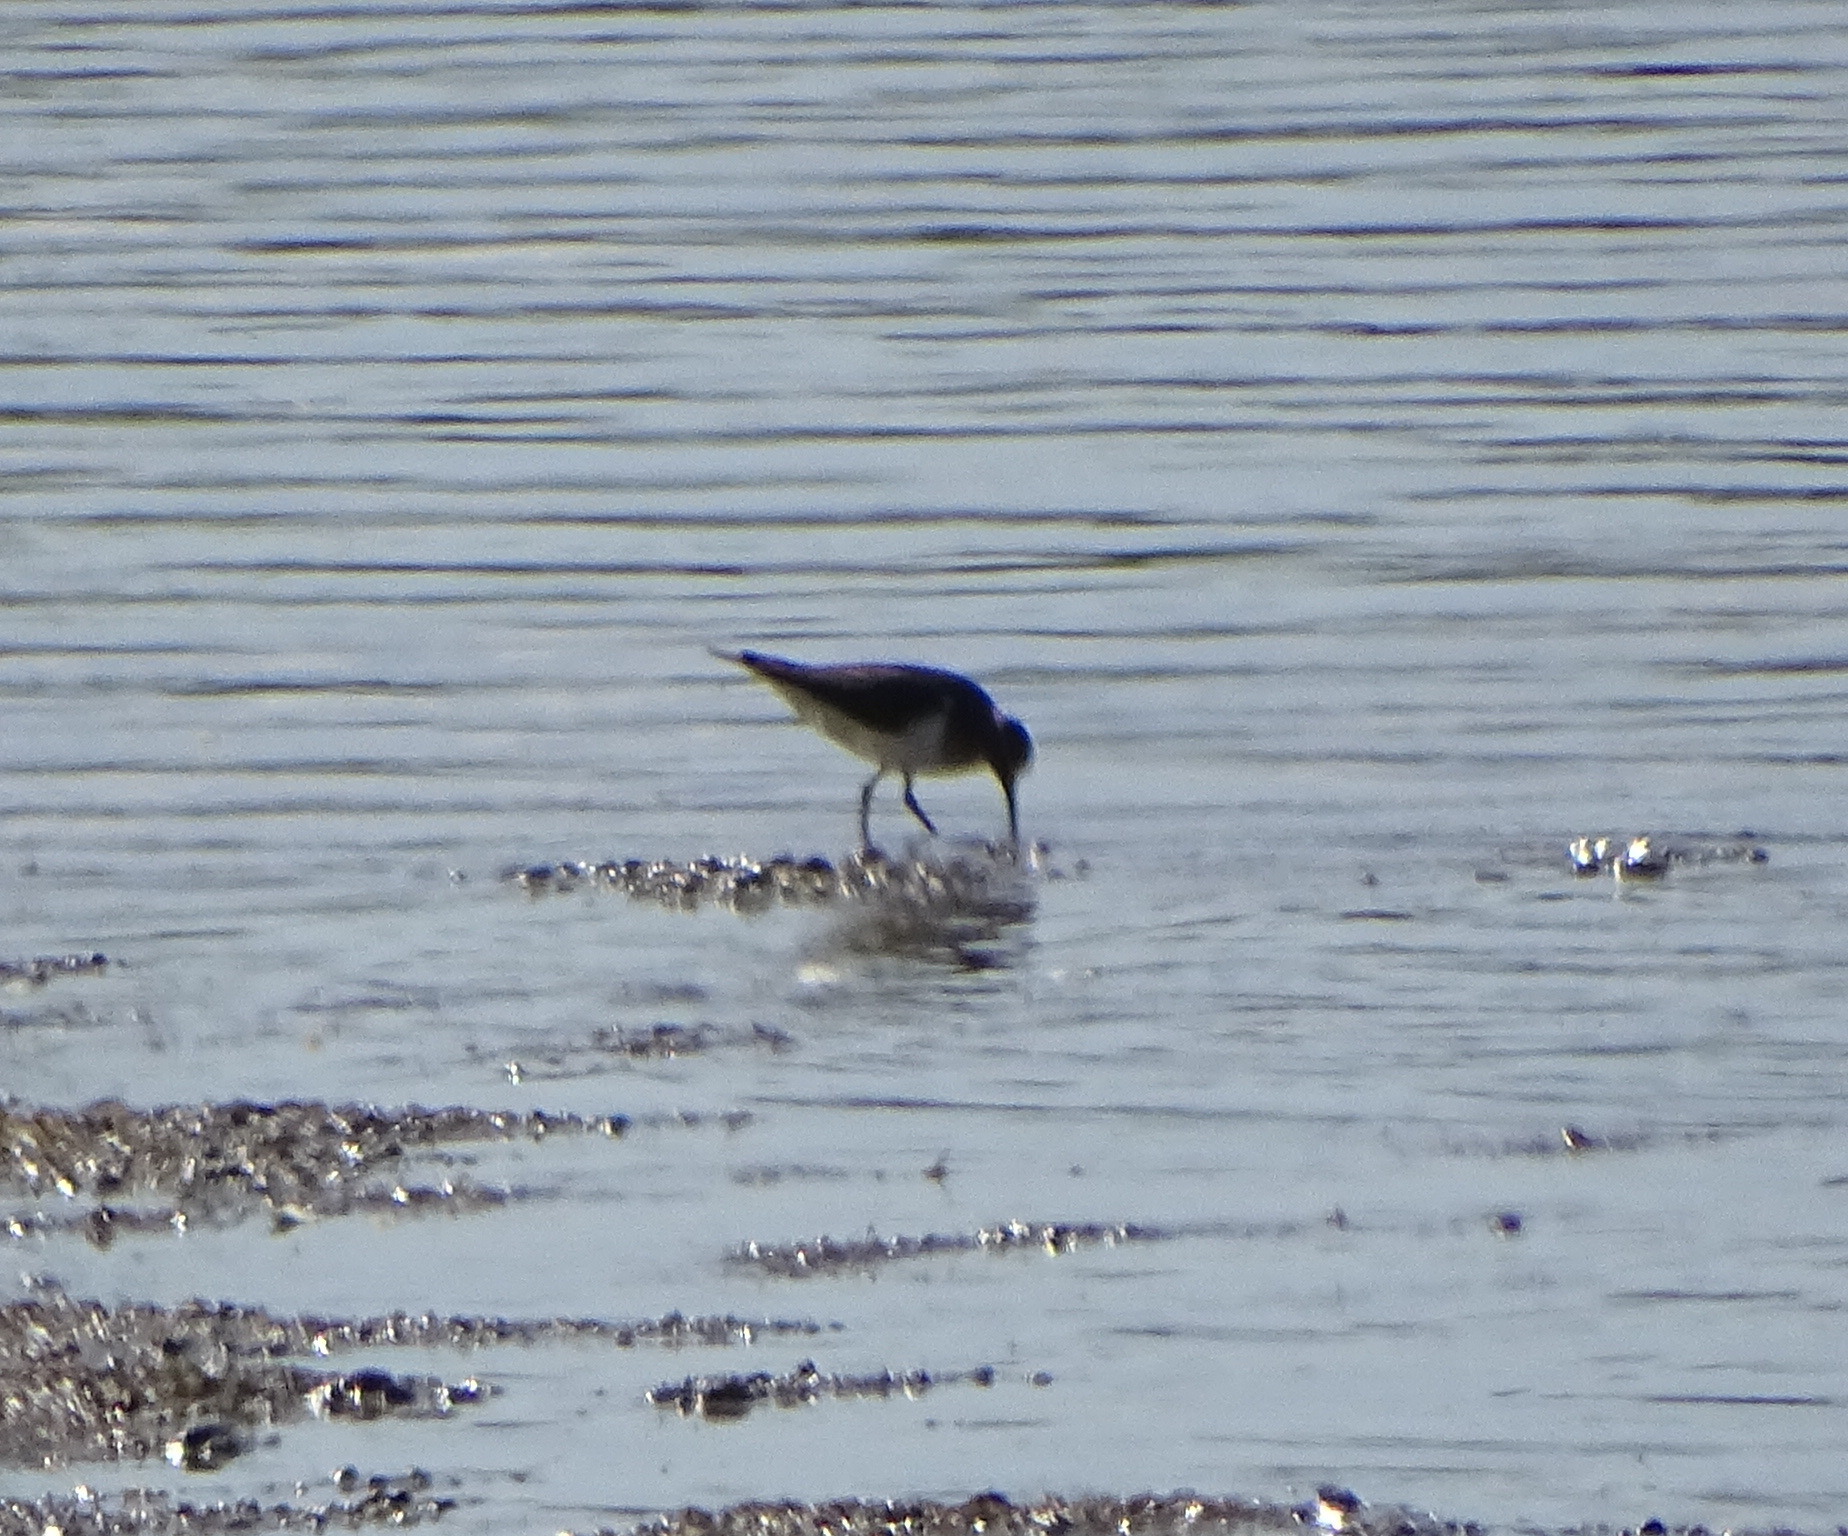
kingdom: Animalia
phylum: Chordata
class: Aves
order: Charadriiformes
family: Scolopacidae
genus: Actitis
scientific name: Actitis hypoleucos
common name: Common sandpiper
